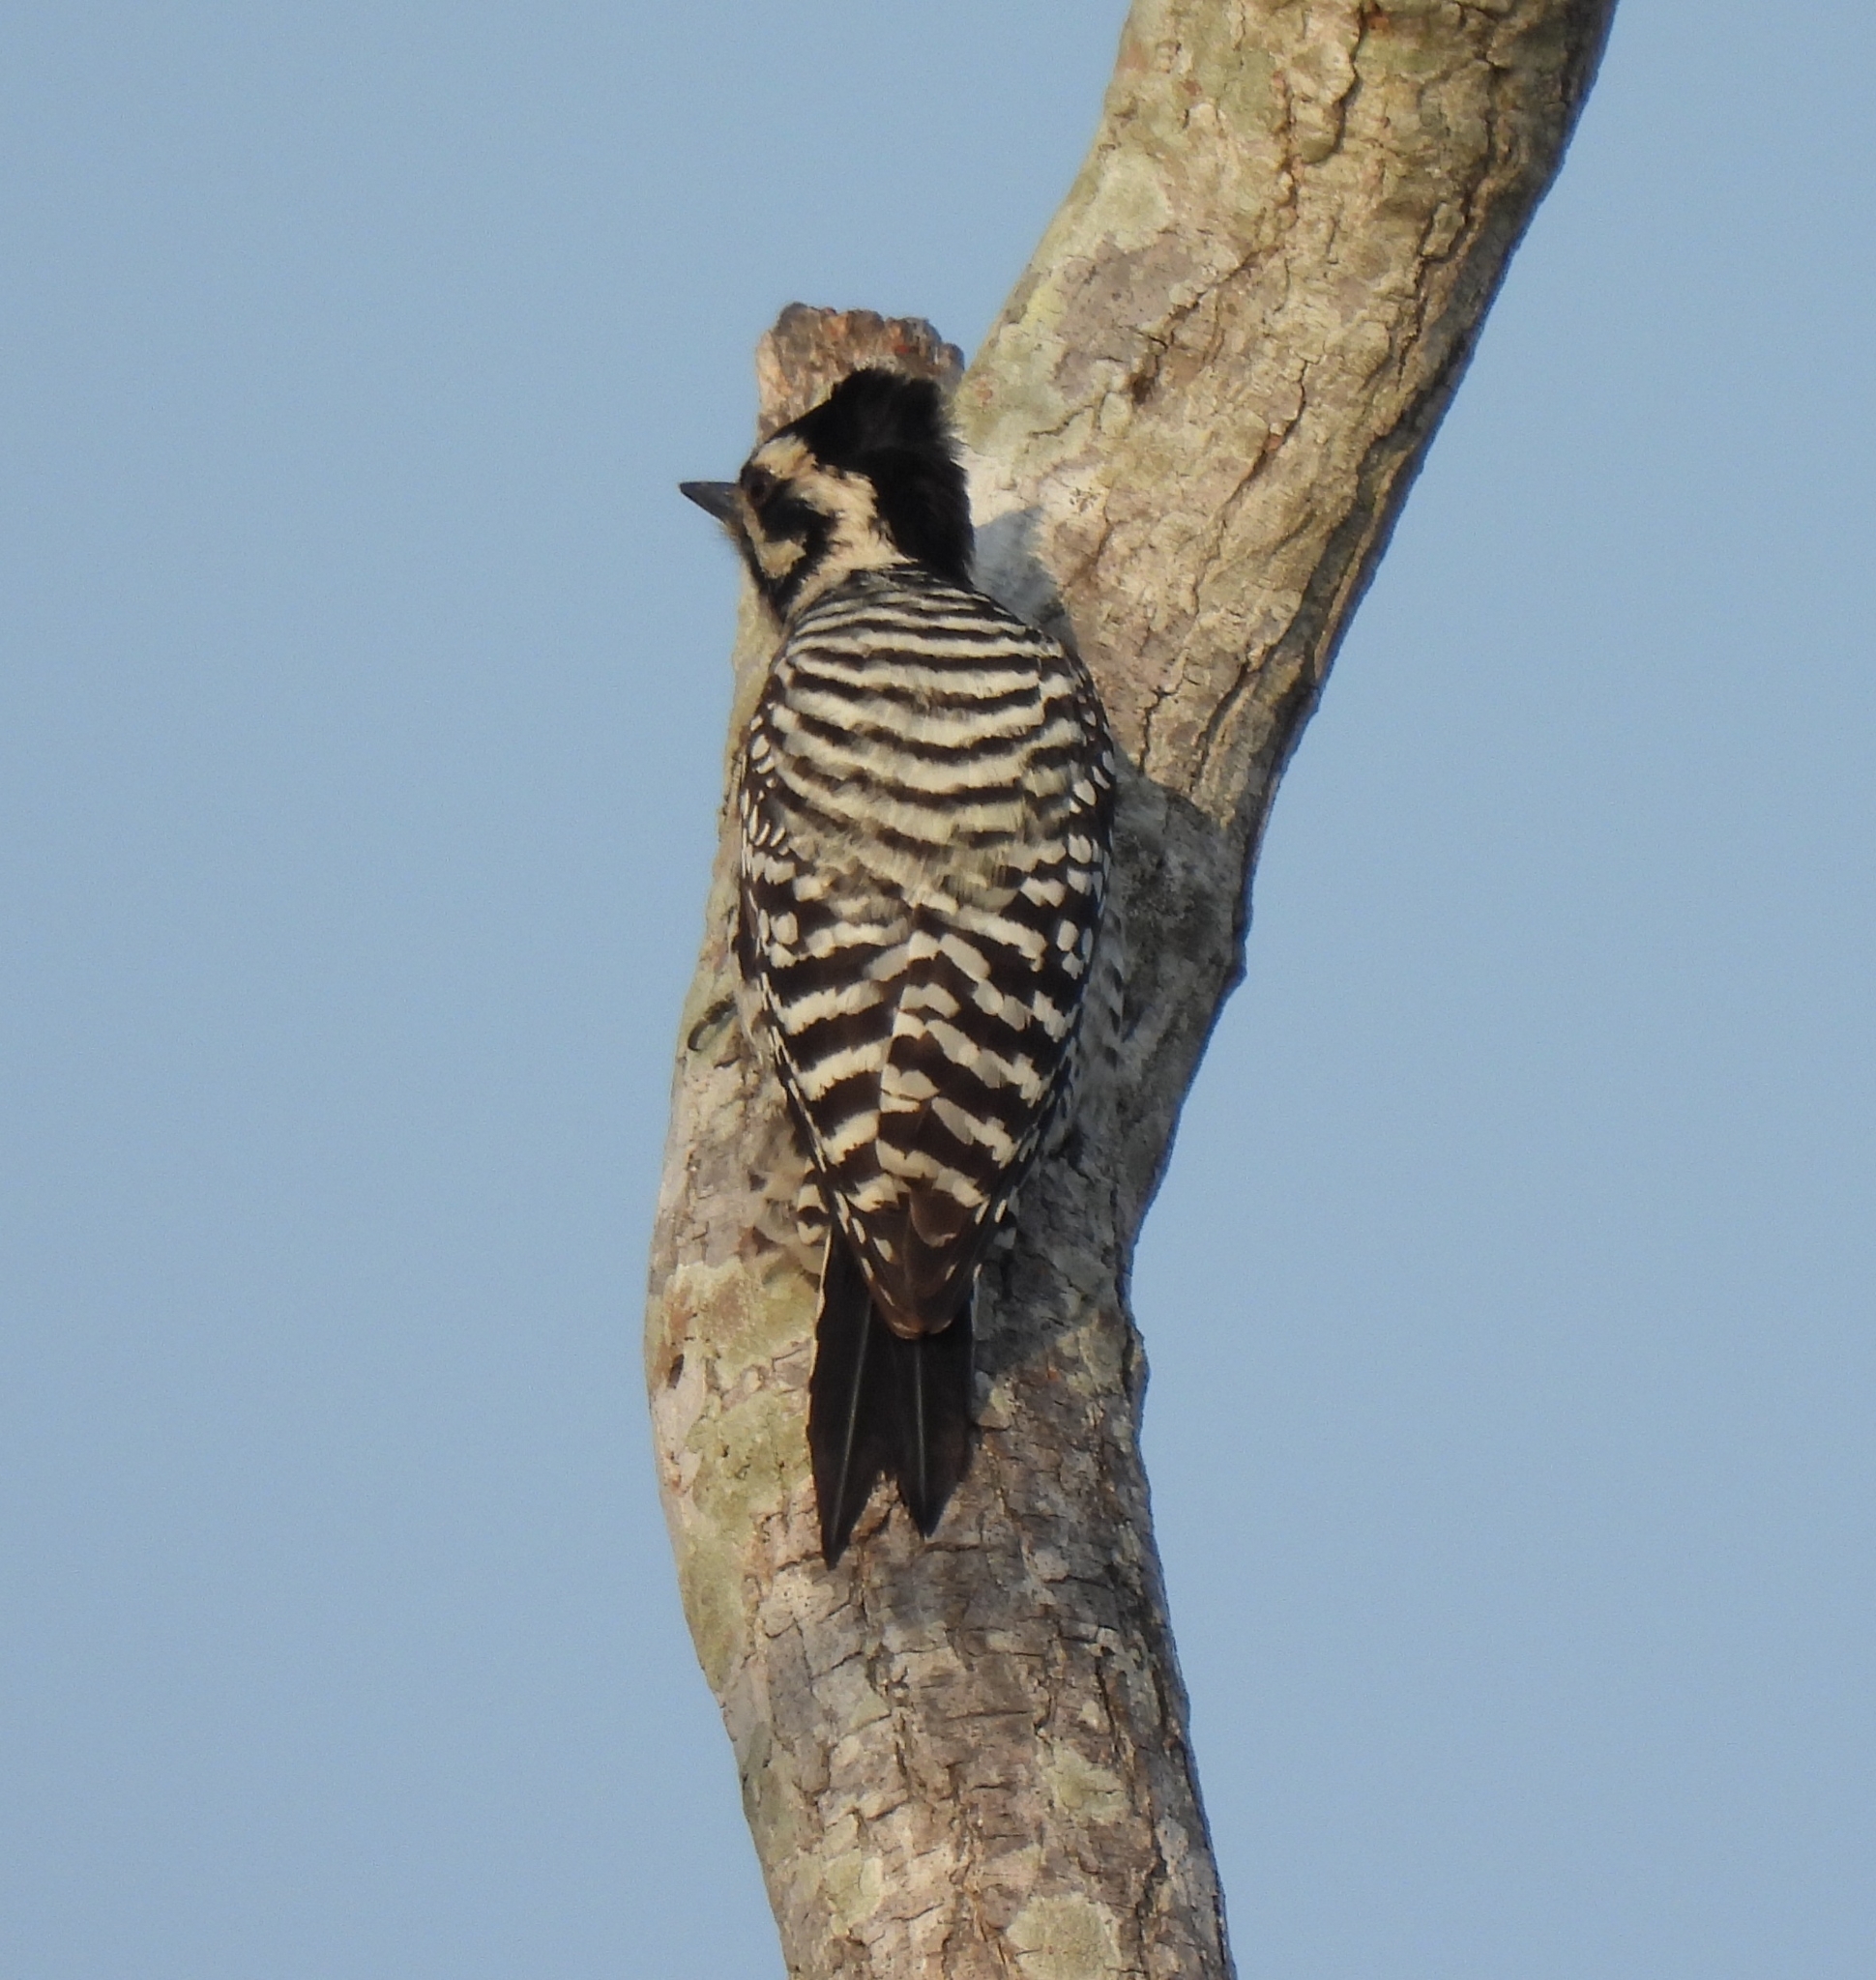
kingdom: Animalia
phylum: Chordata
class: Aves
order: Piciformes
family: Picidae
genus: Dryobates
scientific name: Dryobates scalaris
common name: Ladder-backed woodpecker
